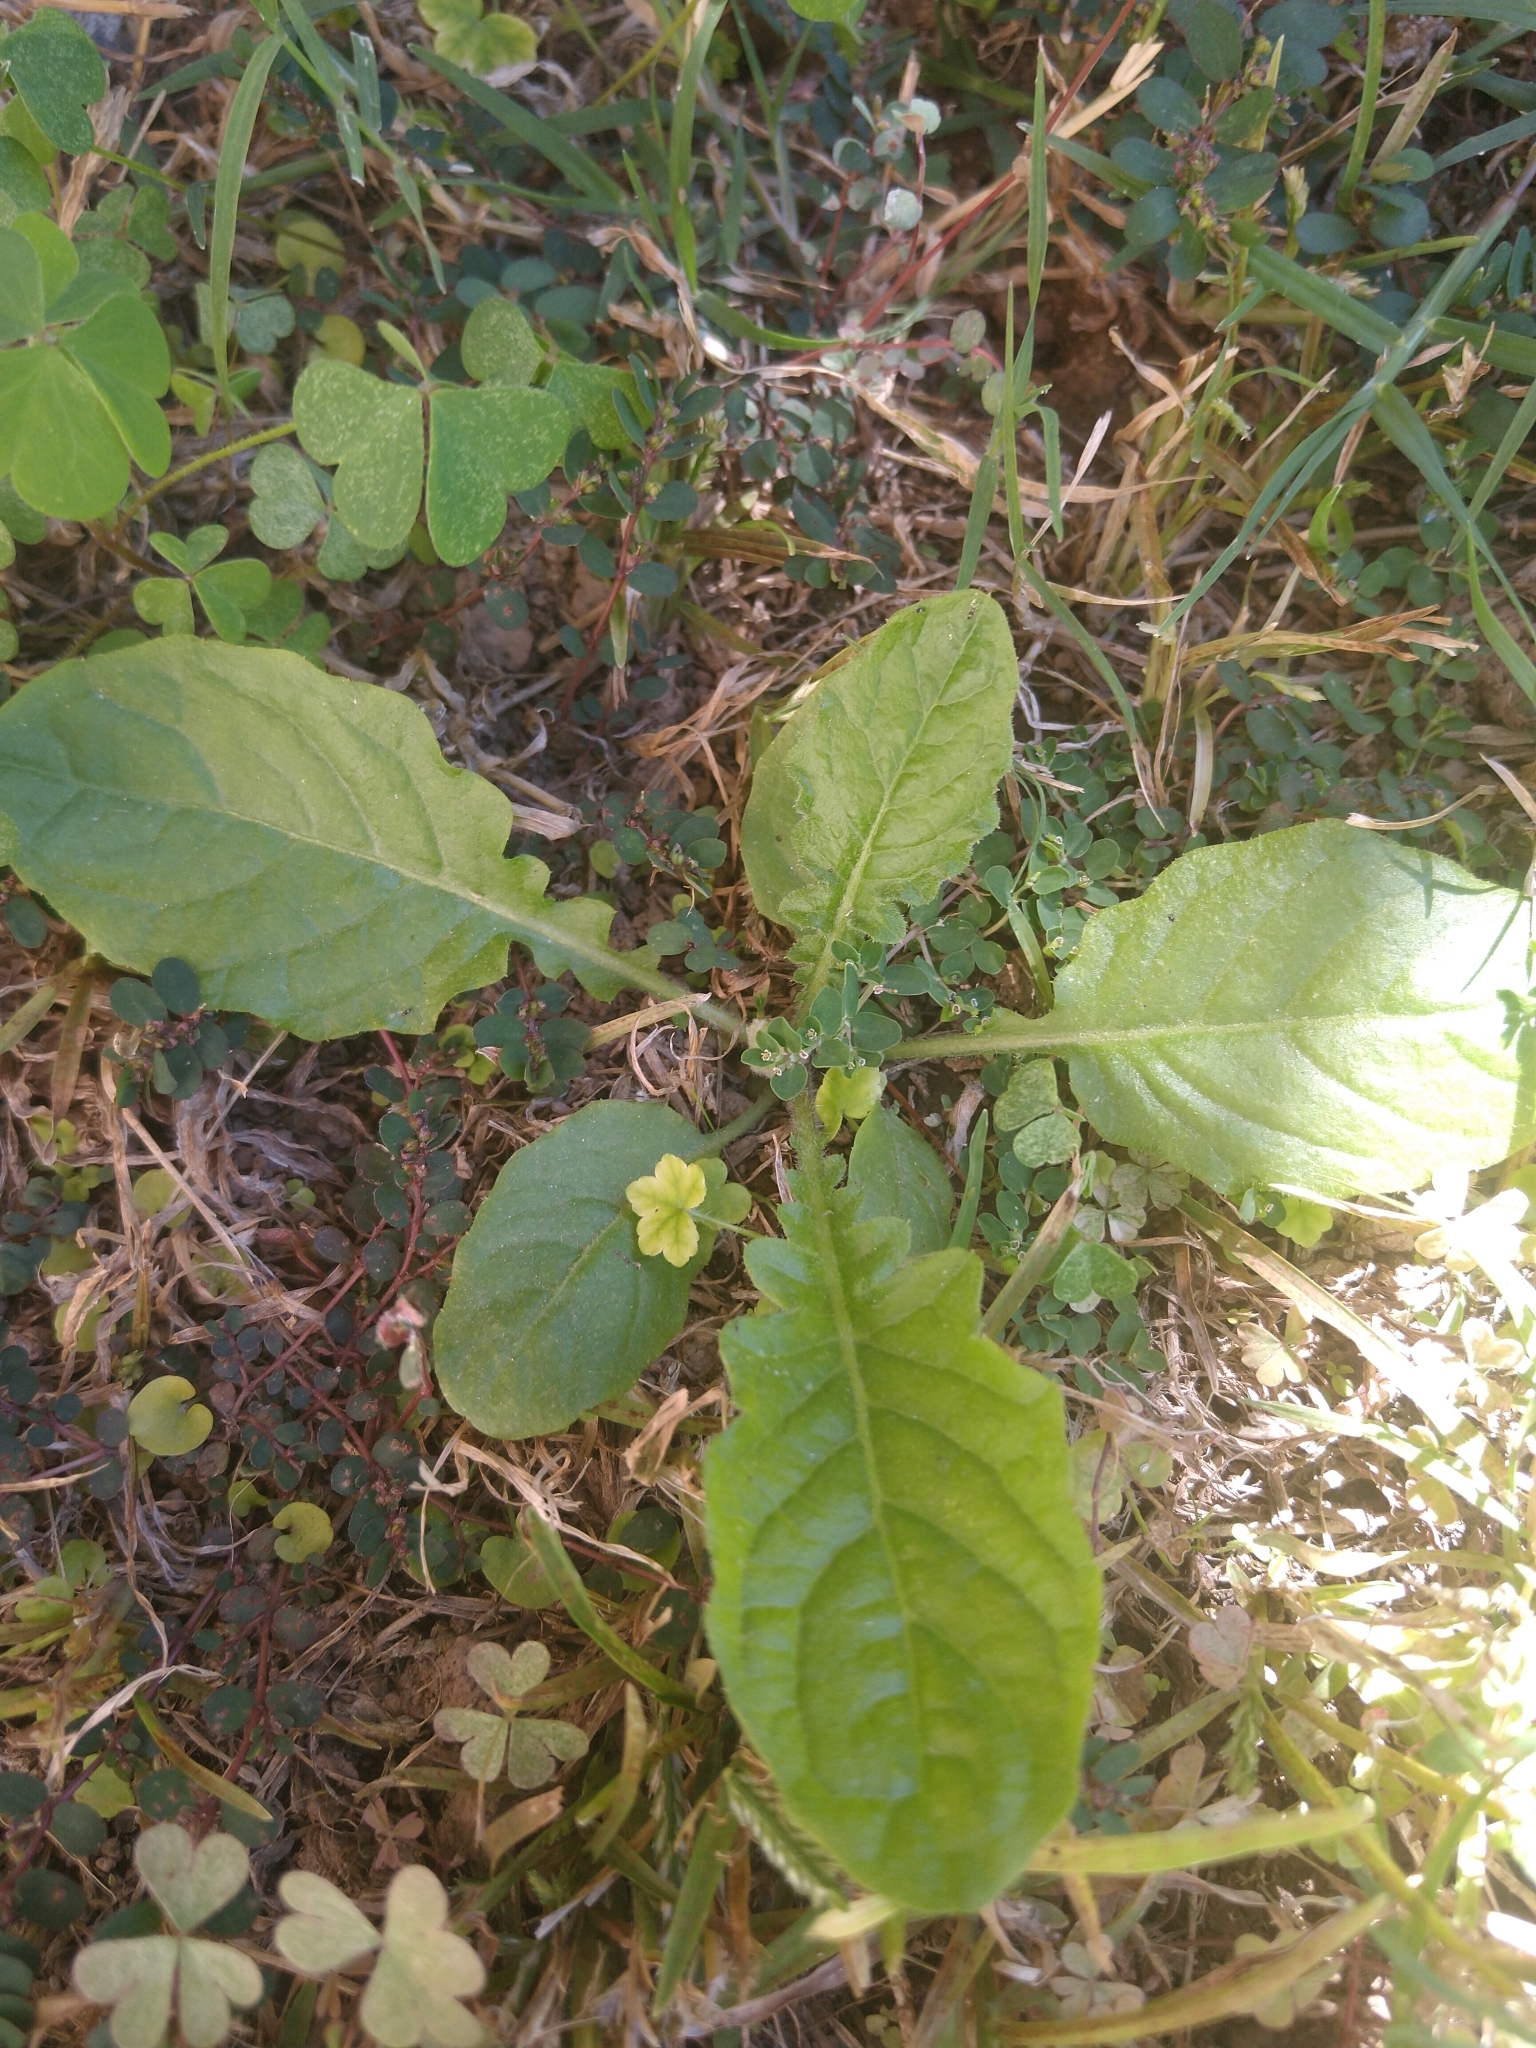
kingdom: Plantae
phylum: Tracheophyta
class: Magnoliopsida
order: Asterales
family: Asteraceae
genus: Youngia
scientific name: Youngia japonica
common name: Oriental false hawksbeard
